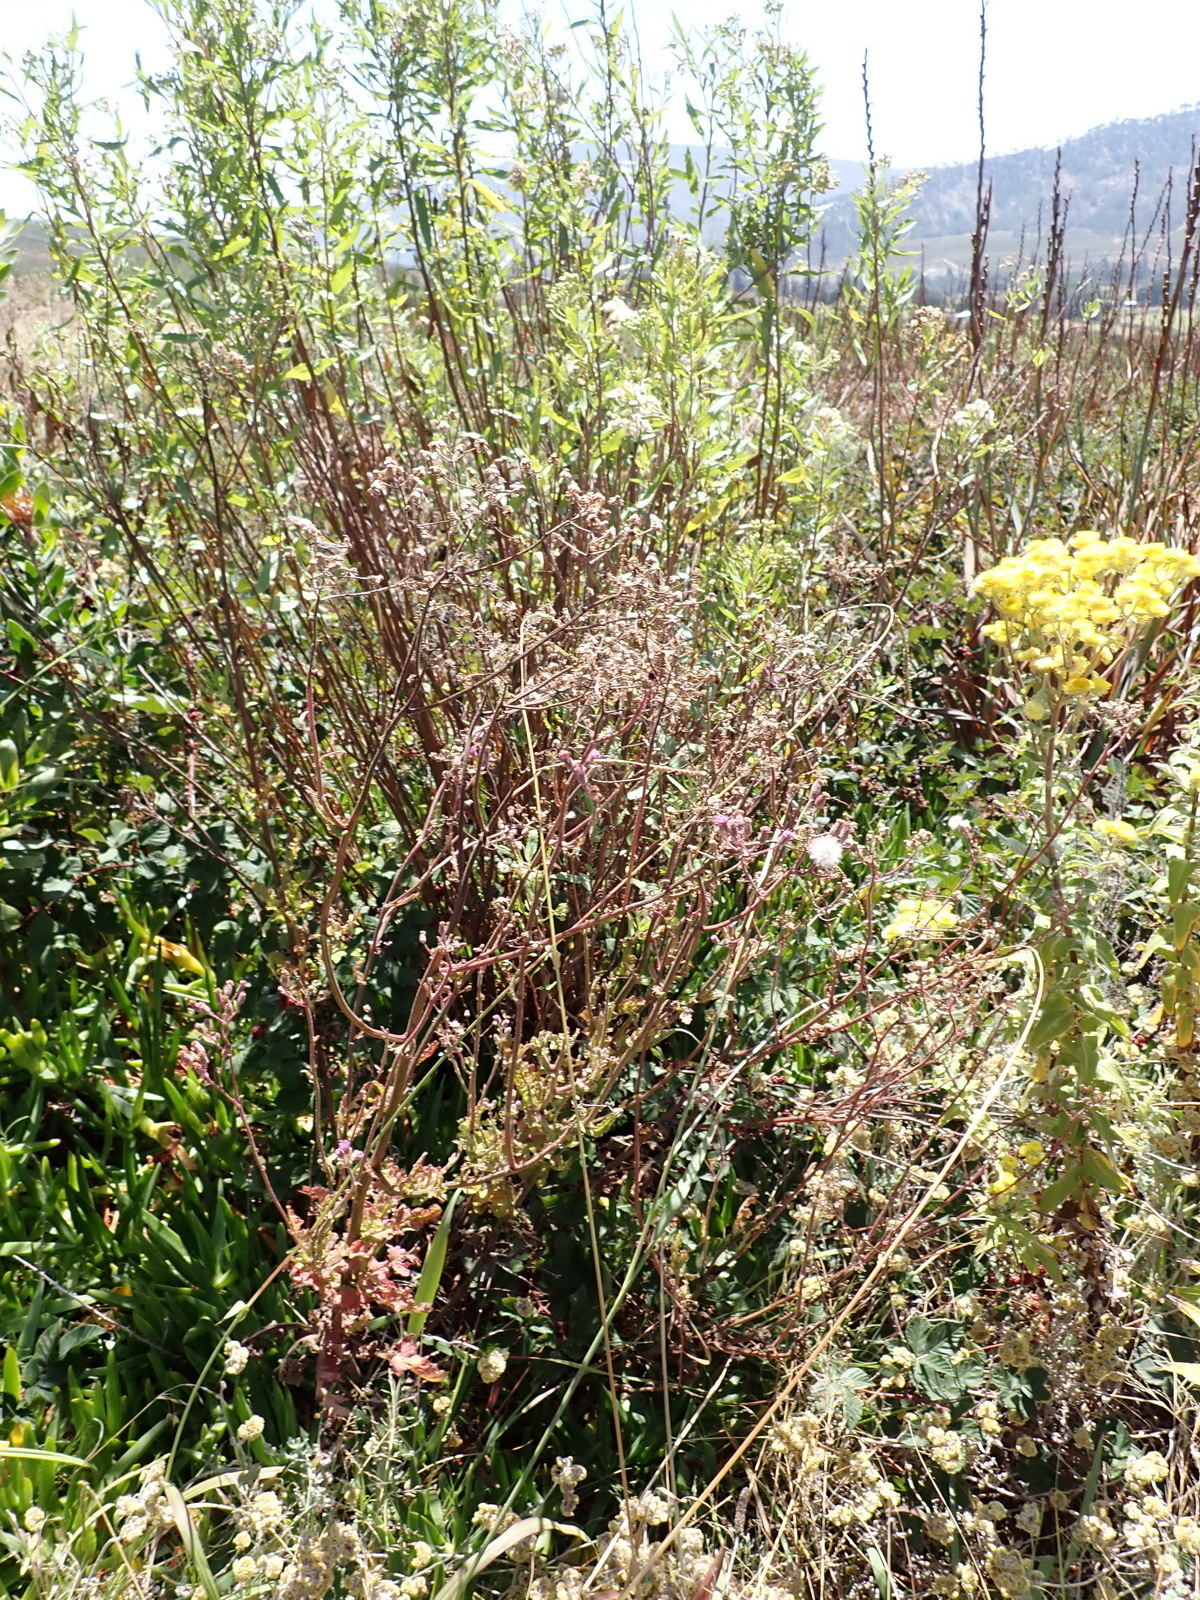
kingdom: Plantae
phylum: Tracheophyta
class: Magnoliopsida
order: Asterales
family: Asteraceae
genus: Senecio
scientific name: Senecio purpureus
